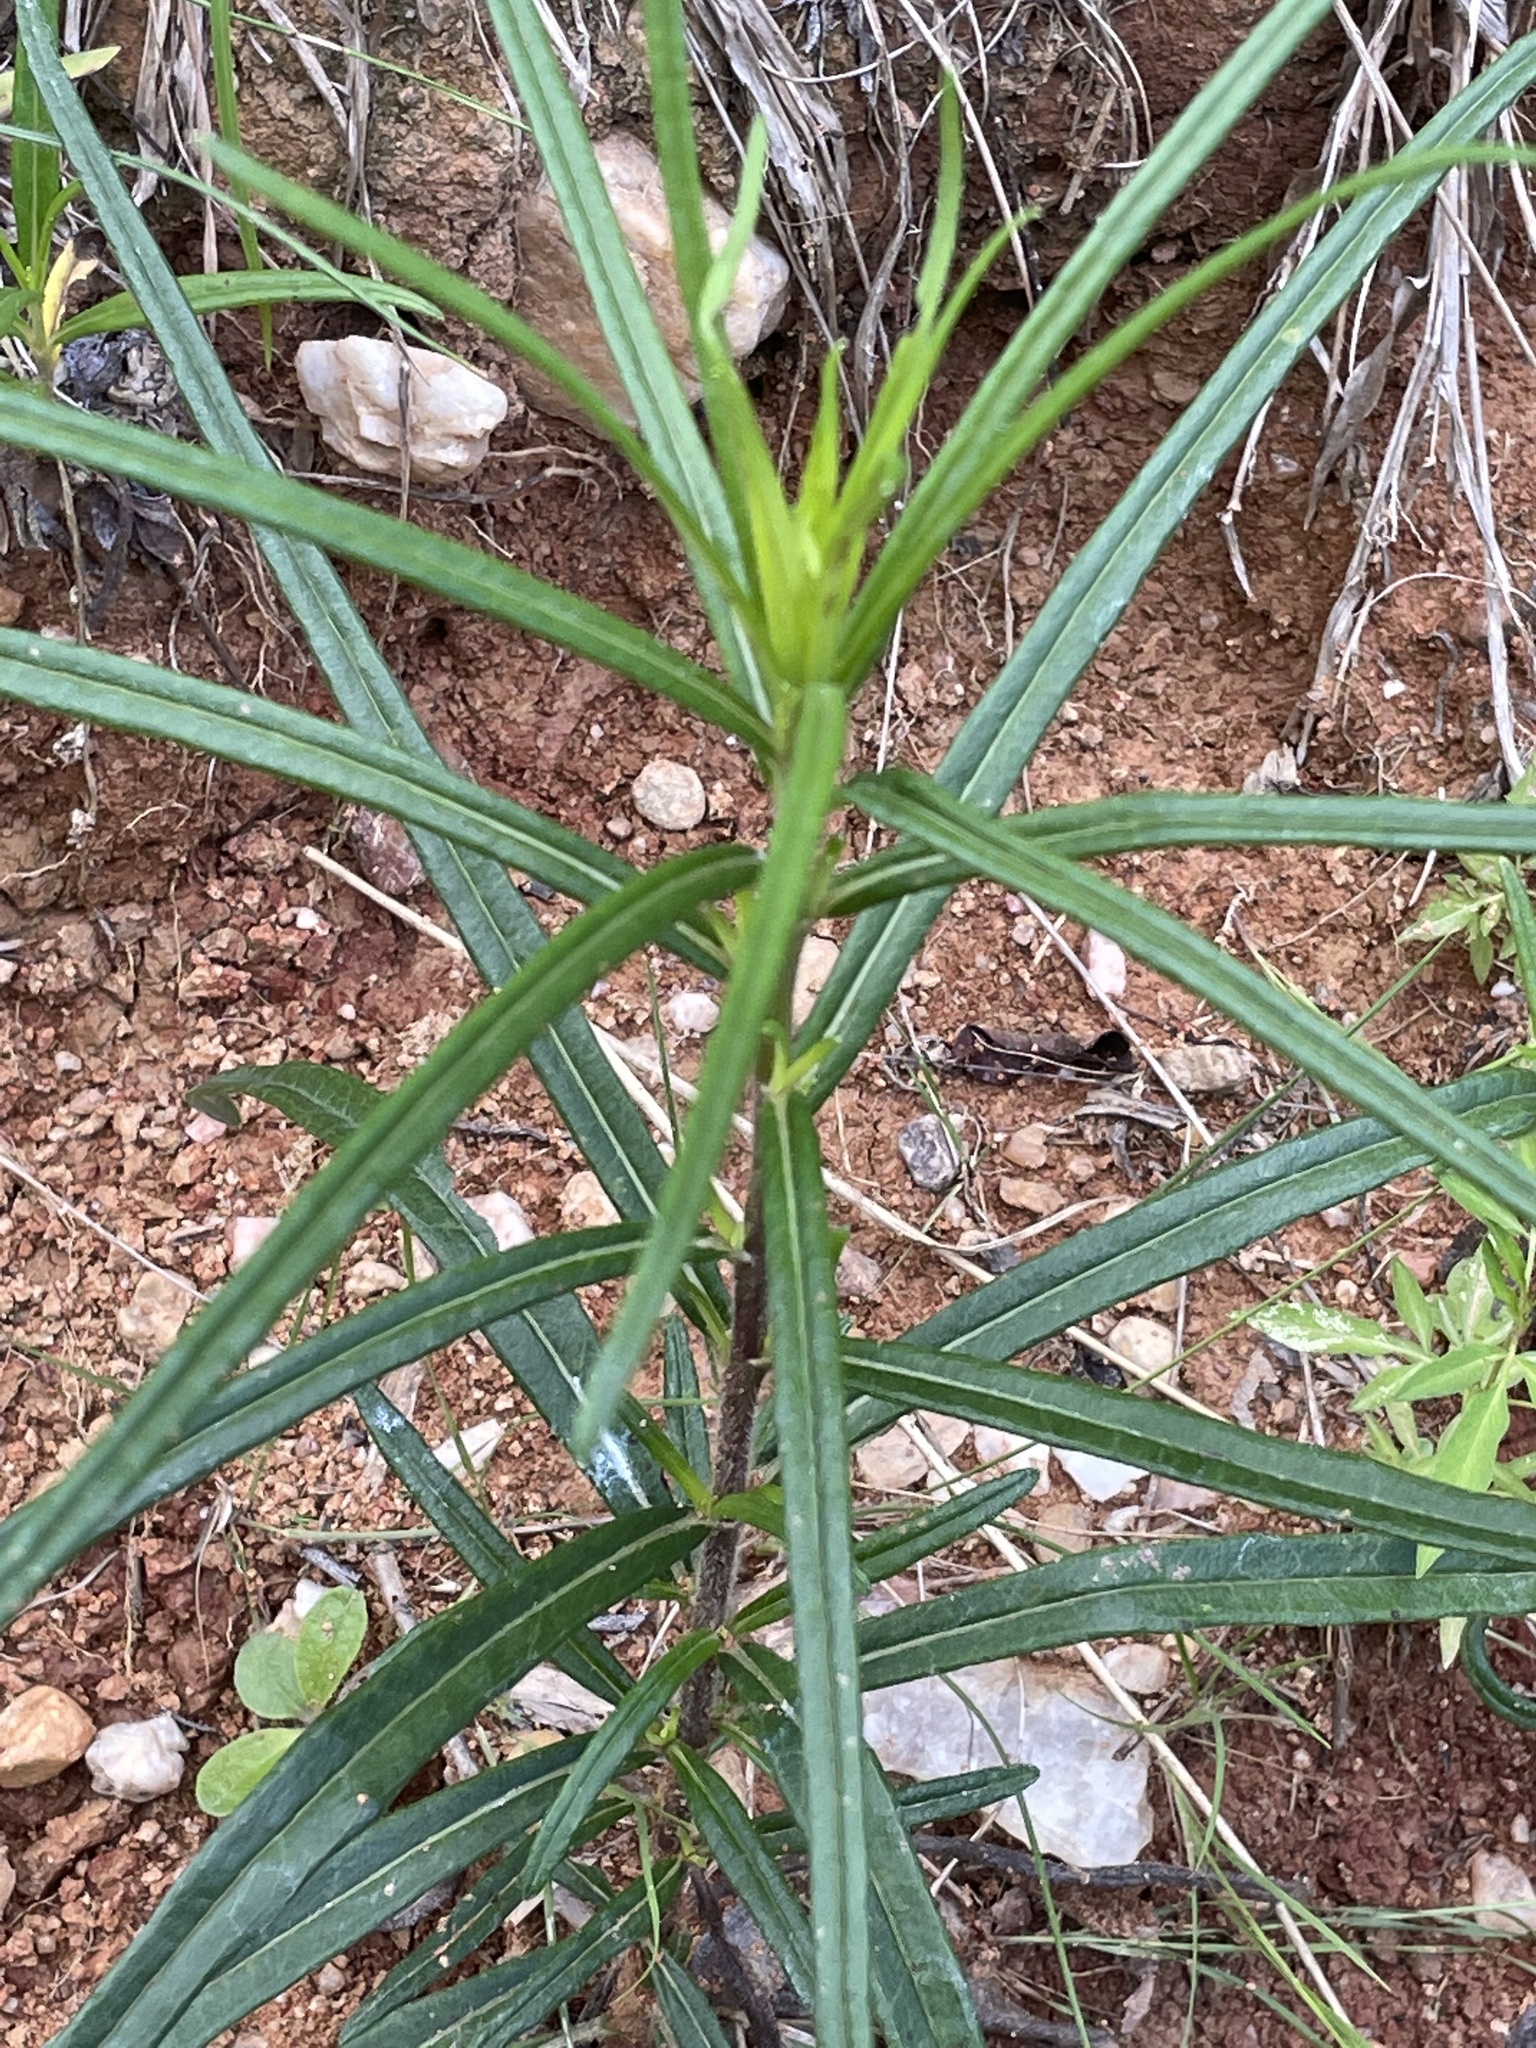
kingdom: Plantae
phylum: Tracheophyta
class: Magnoliopsida
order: Asterales
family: Asteraceae
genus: Helianthus
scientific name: Helianthus angustifolius
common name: Swamp sunflower
